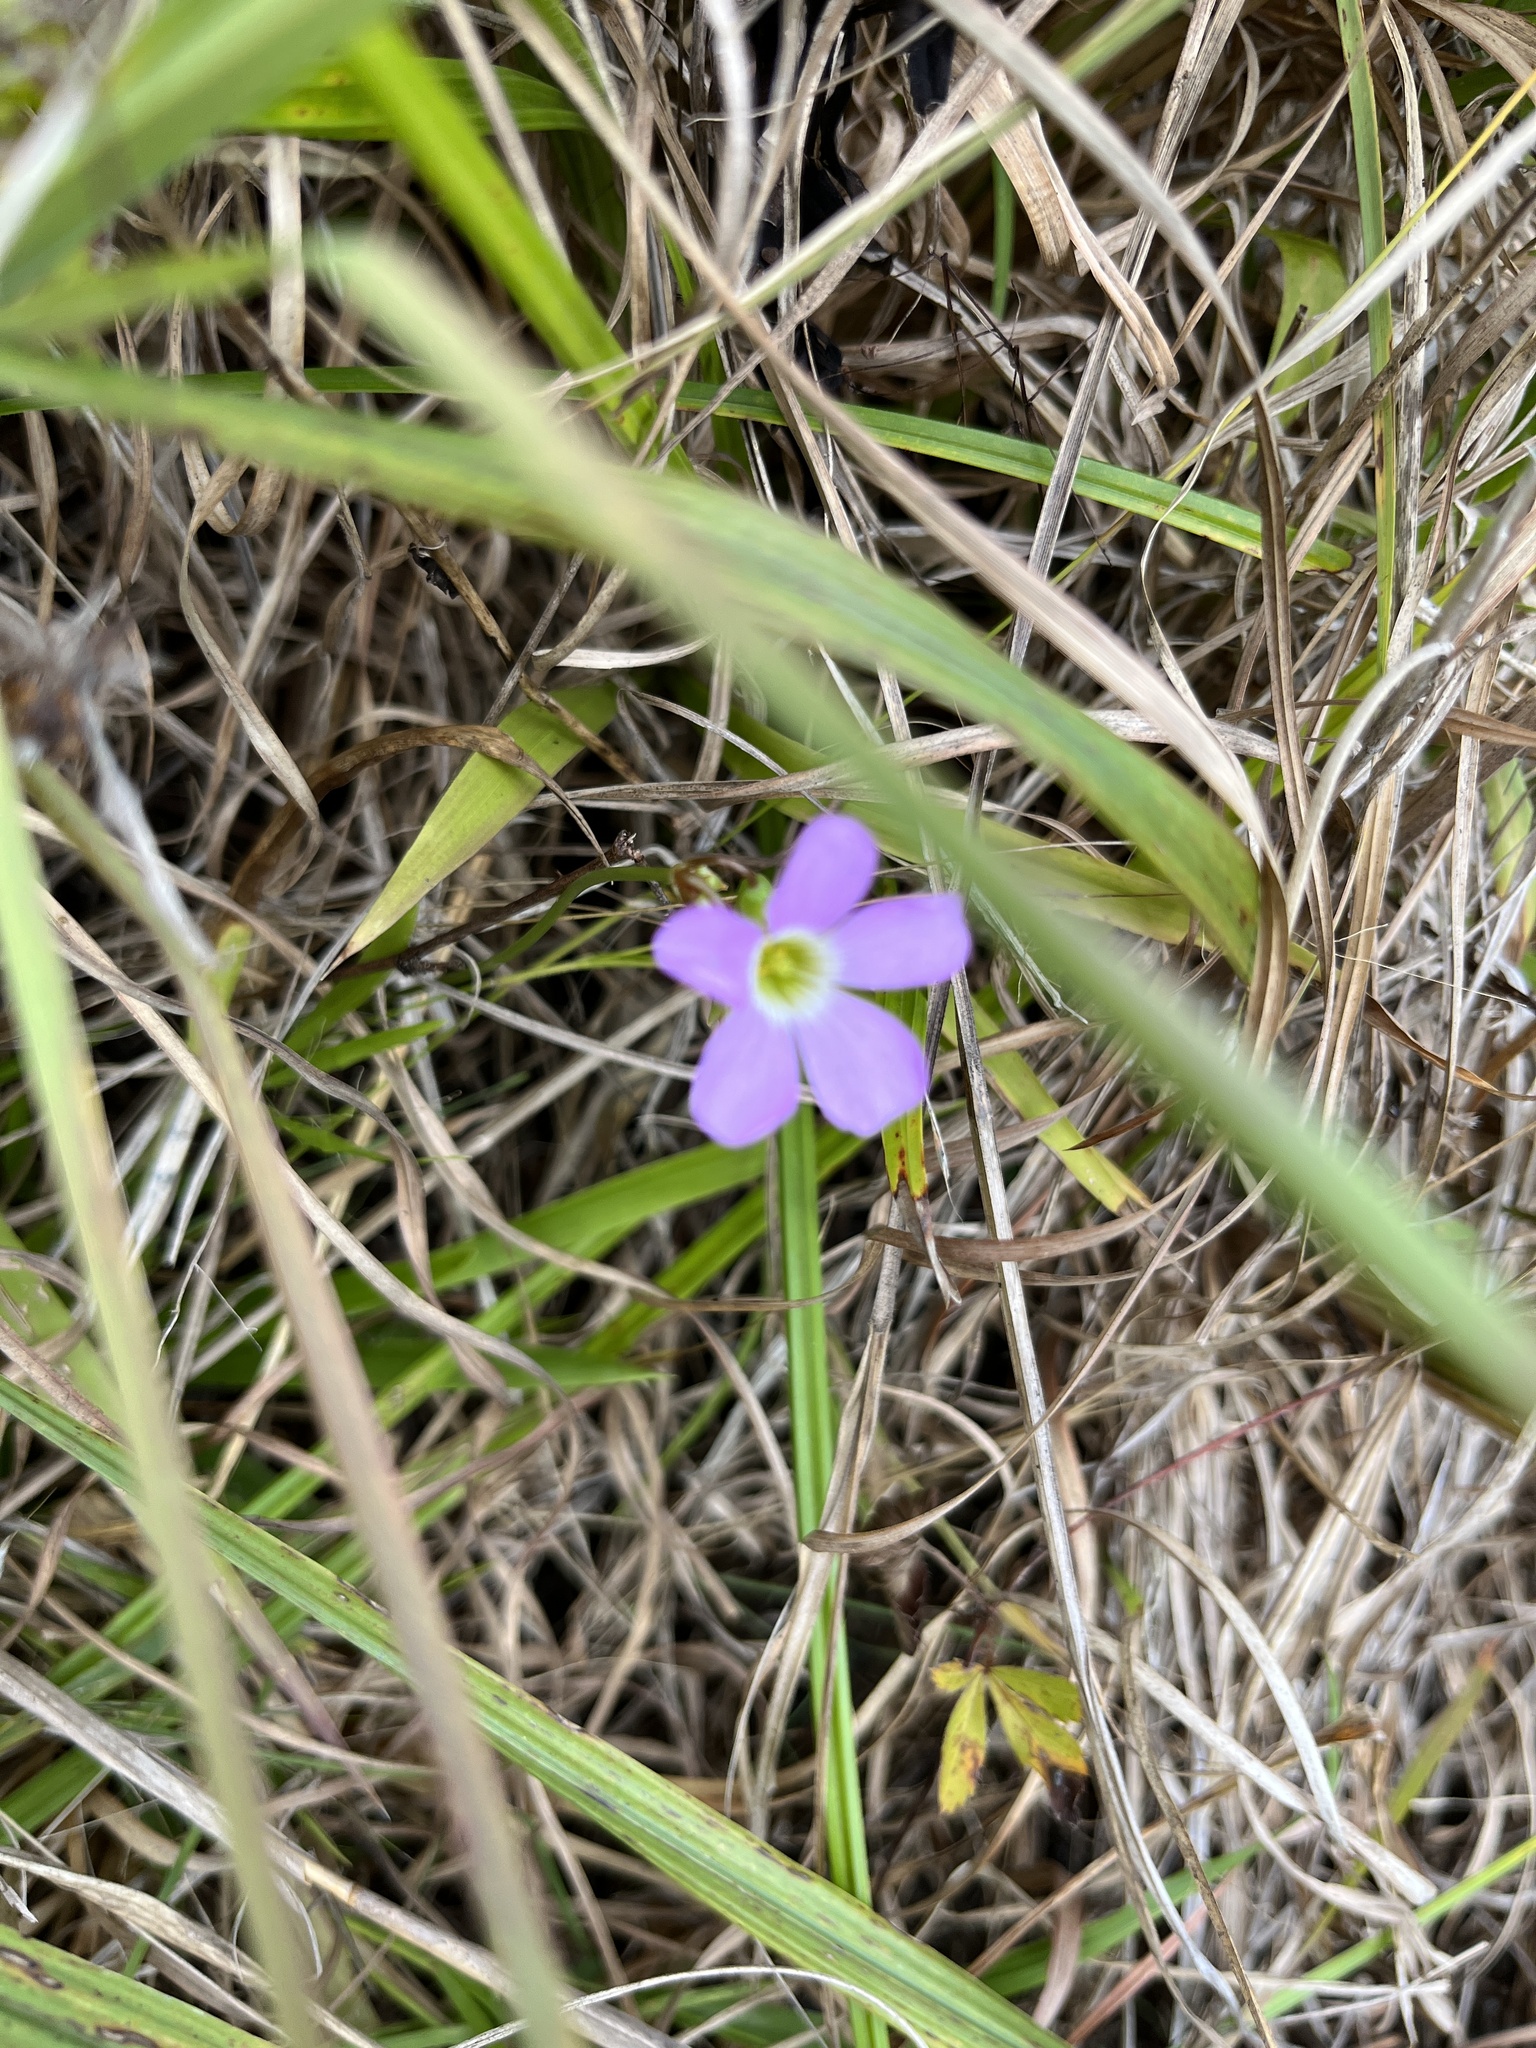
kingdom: Plantae
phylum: Tracheophyta
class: Magnoliopsida
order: Oxalidales
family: Oxalidaceae
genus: Oxalis
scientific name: Oxalis violacea
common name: Violet wood-sorrel
